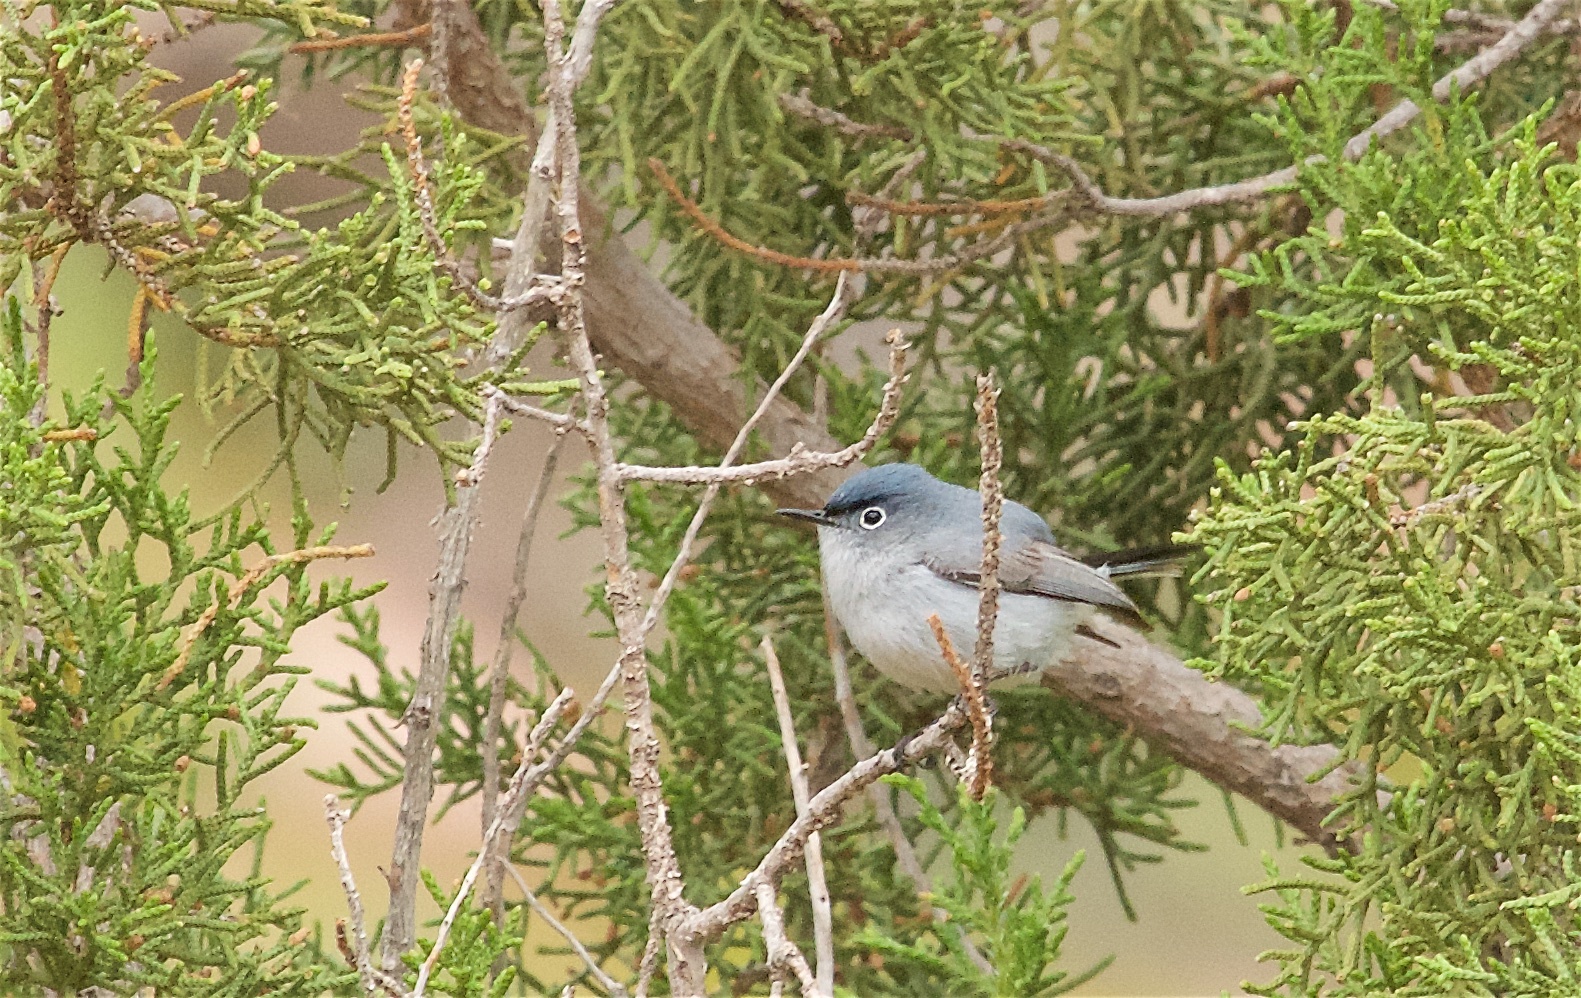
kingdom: Animalia
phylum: Chordata
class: Aves
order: Passeriformes
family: Polioptilidae
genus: Polioptila
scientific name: Polioptila caerulea
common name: Blue-gray gnatcatcher
